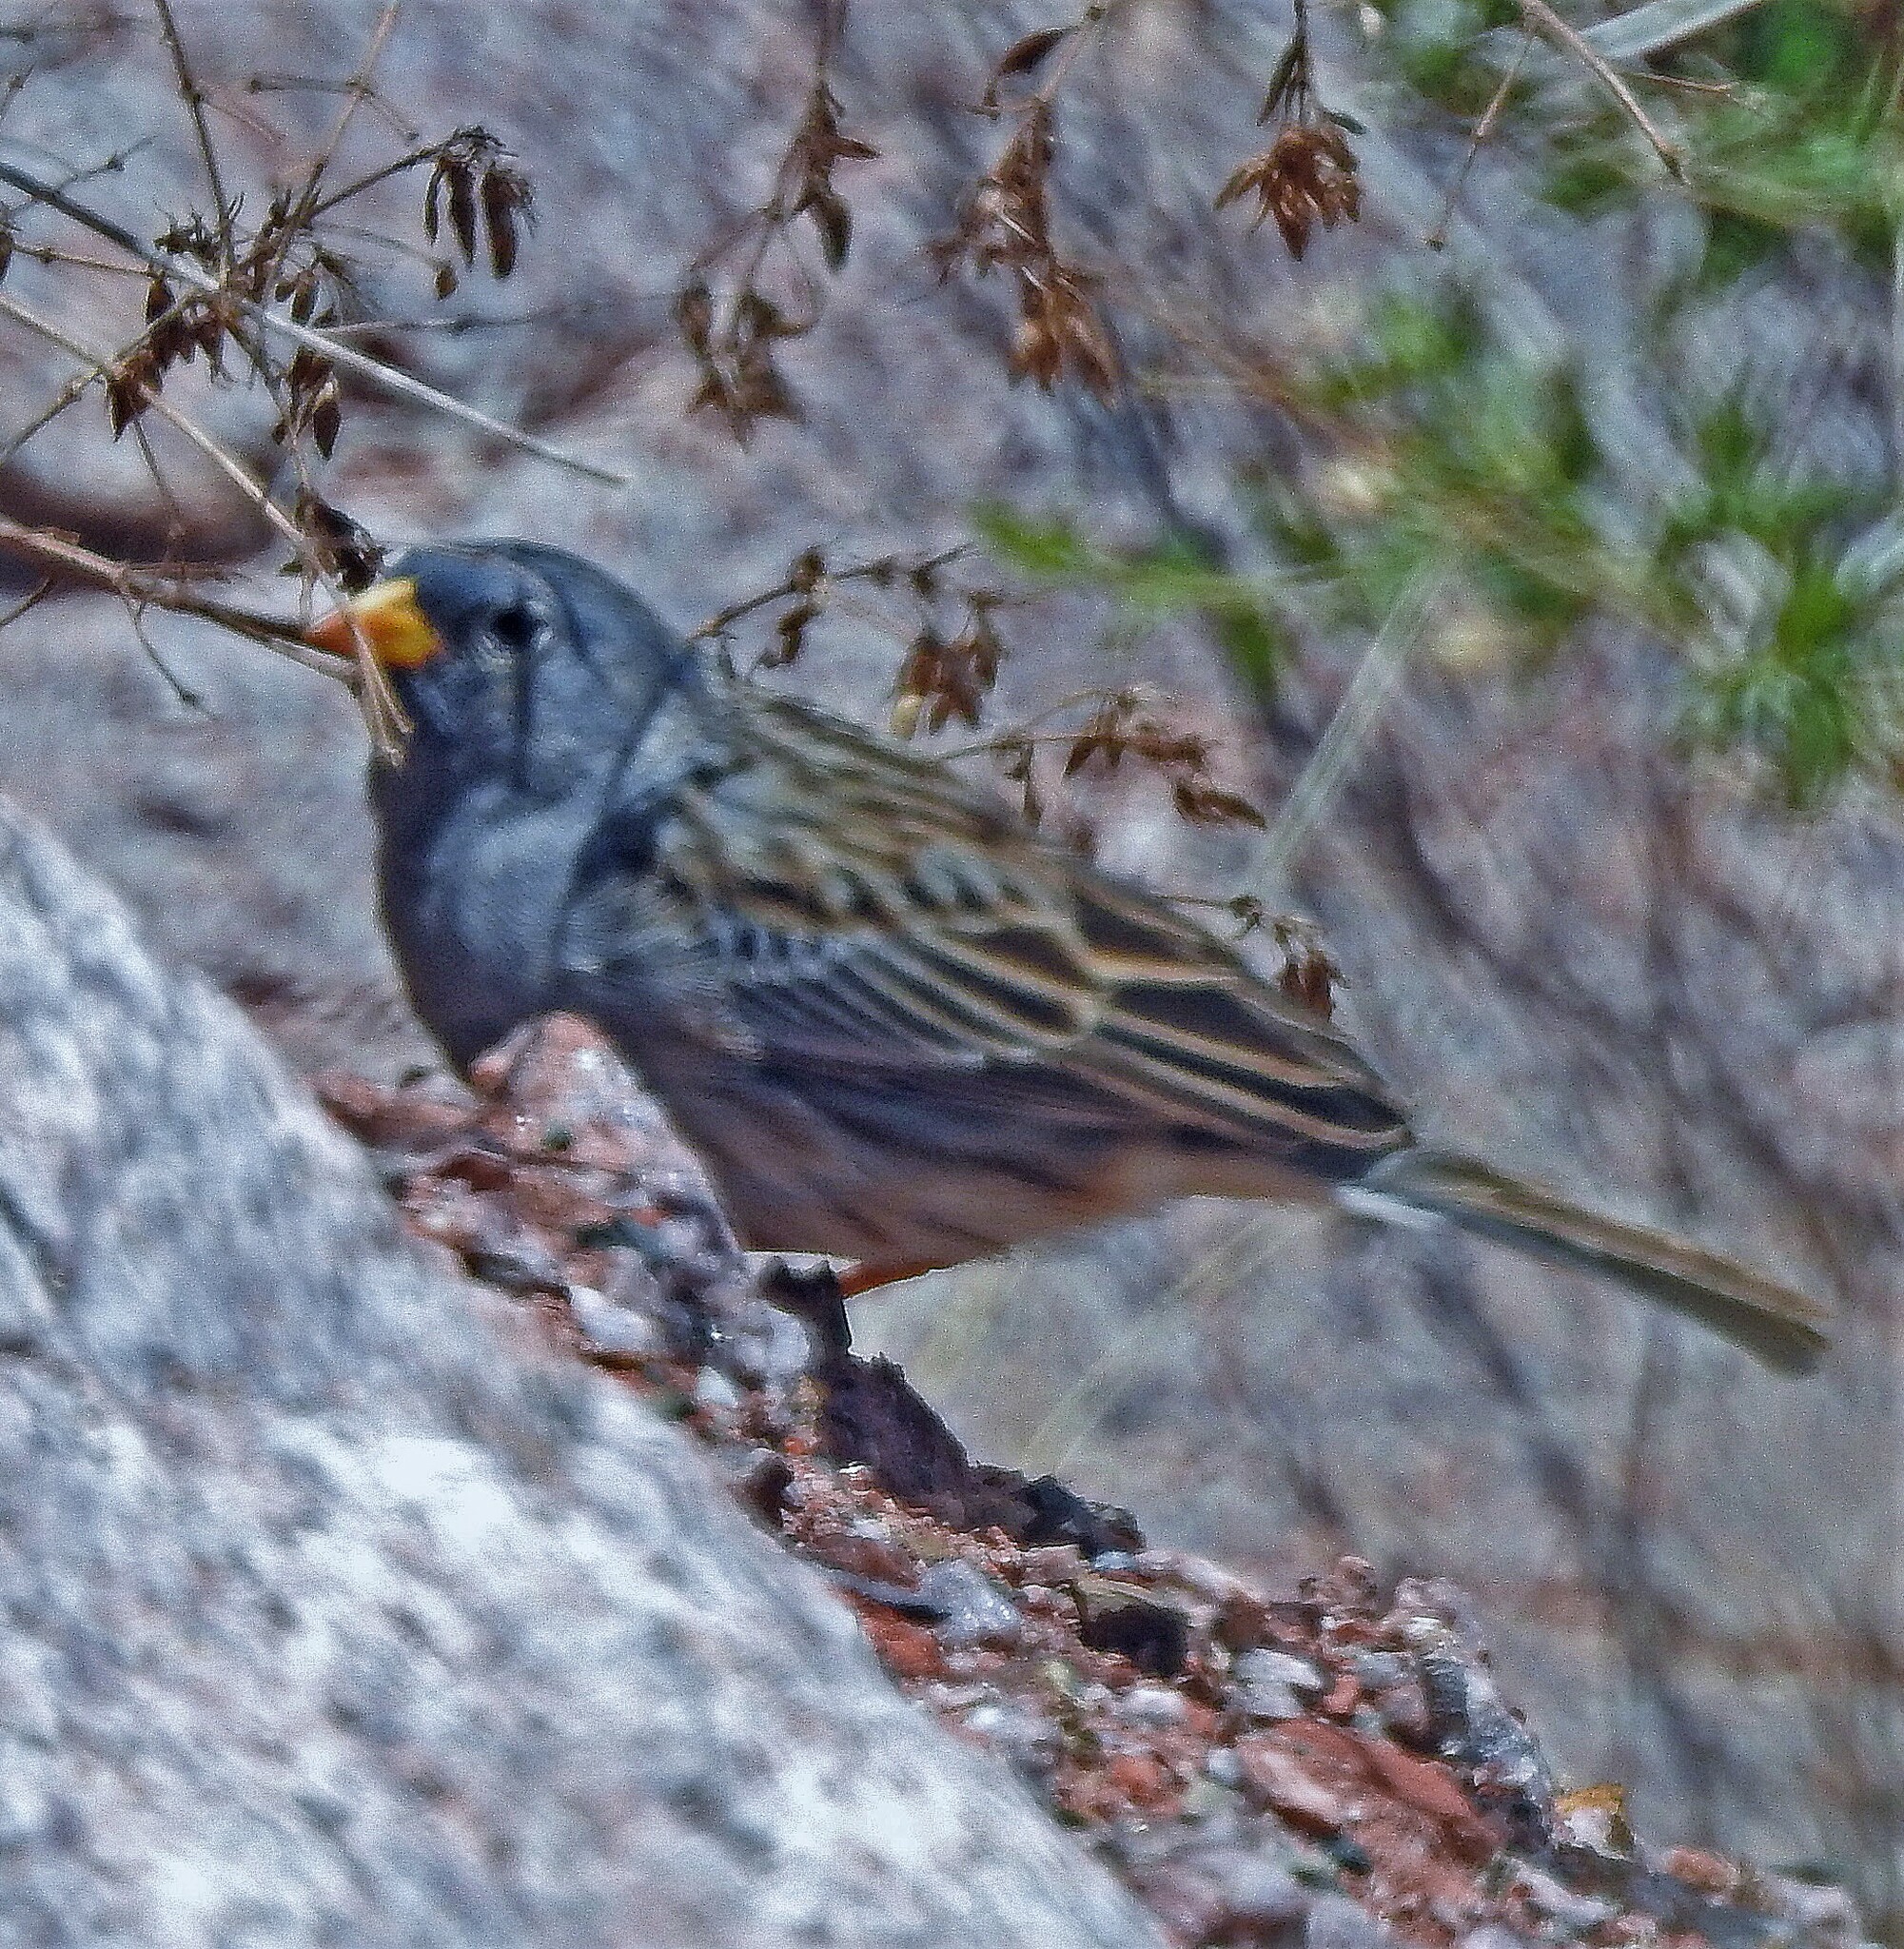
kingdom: Animalia
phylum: Chordata
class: Aves
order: Passeriformes
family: Thraupidae
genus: Porphyrospiza
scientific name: Porphyrospiza alaudina
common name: Band-tailed sierra finch
